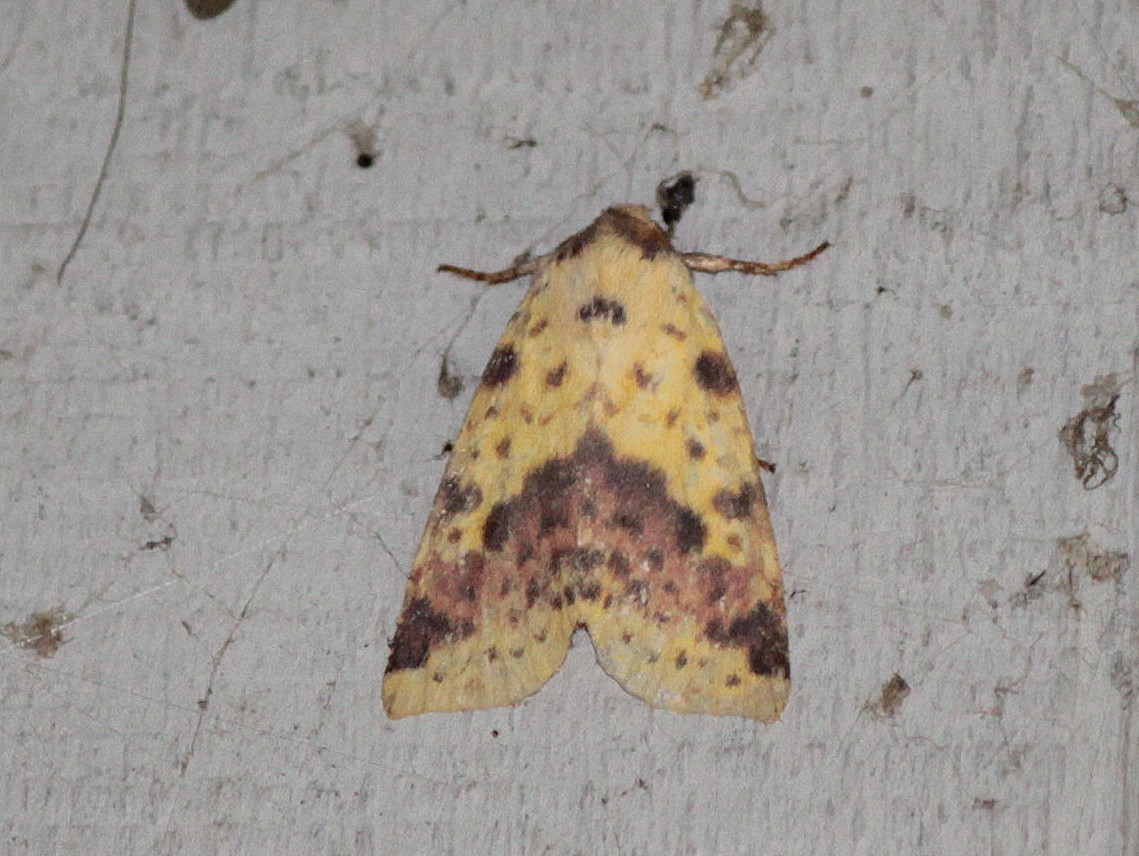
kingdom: Animalia
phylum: Arthropoda
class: Insecta
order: Lepidoptera
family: Noctuidae
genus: Xanthia
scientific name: Xanthia tatago
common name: Pink-banded sallow
